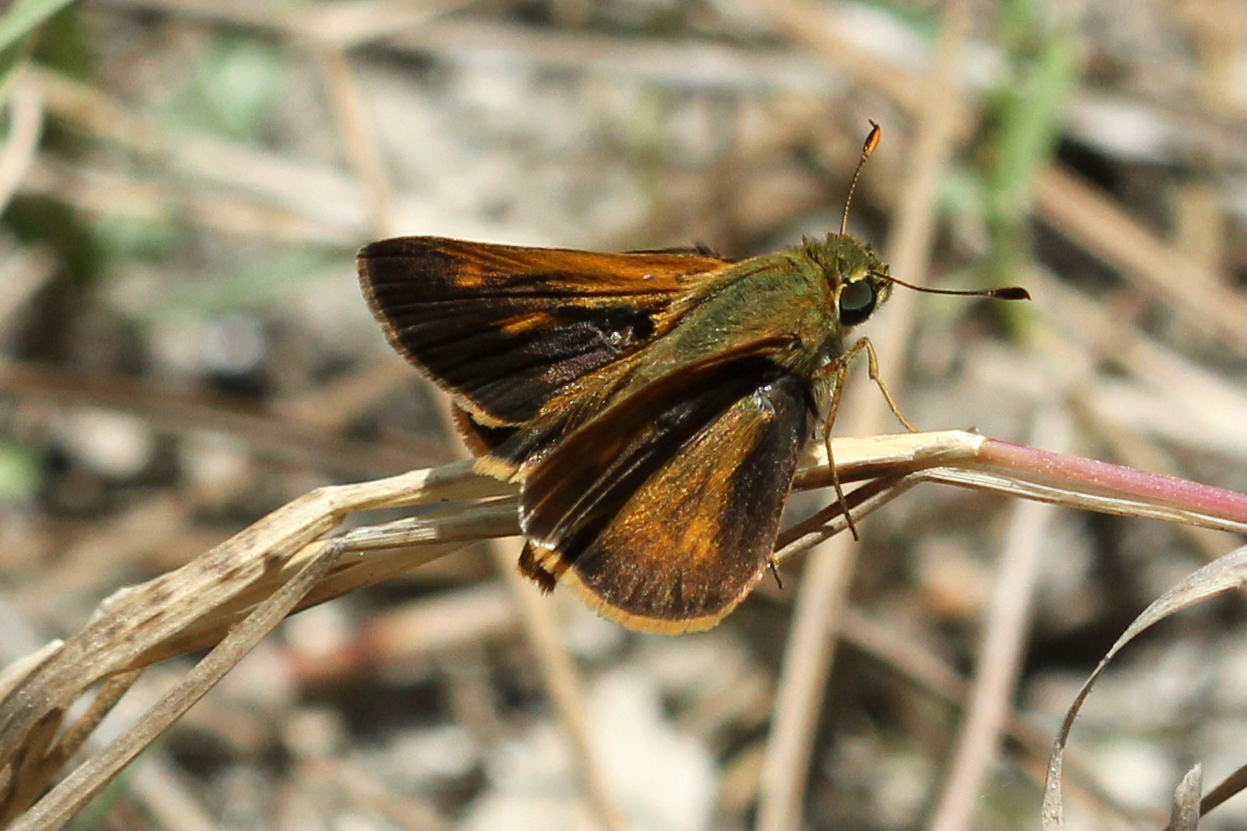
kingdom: Animalia
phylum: Arthropoda
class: Insecta
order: Lepidoptera
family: Hesperiidae
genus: Polites
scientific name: Polites otho
